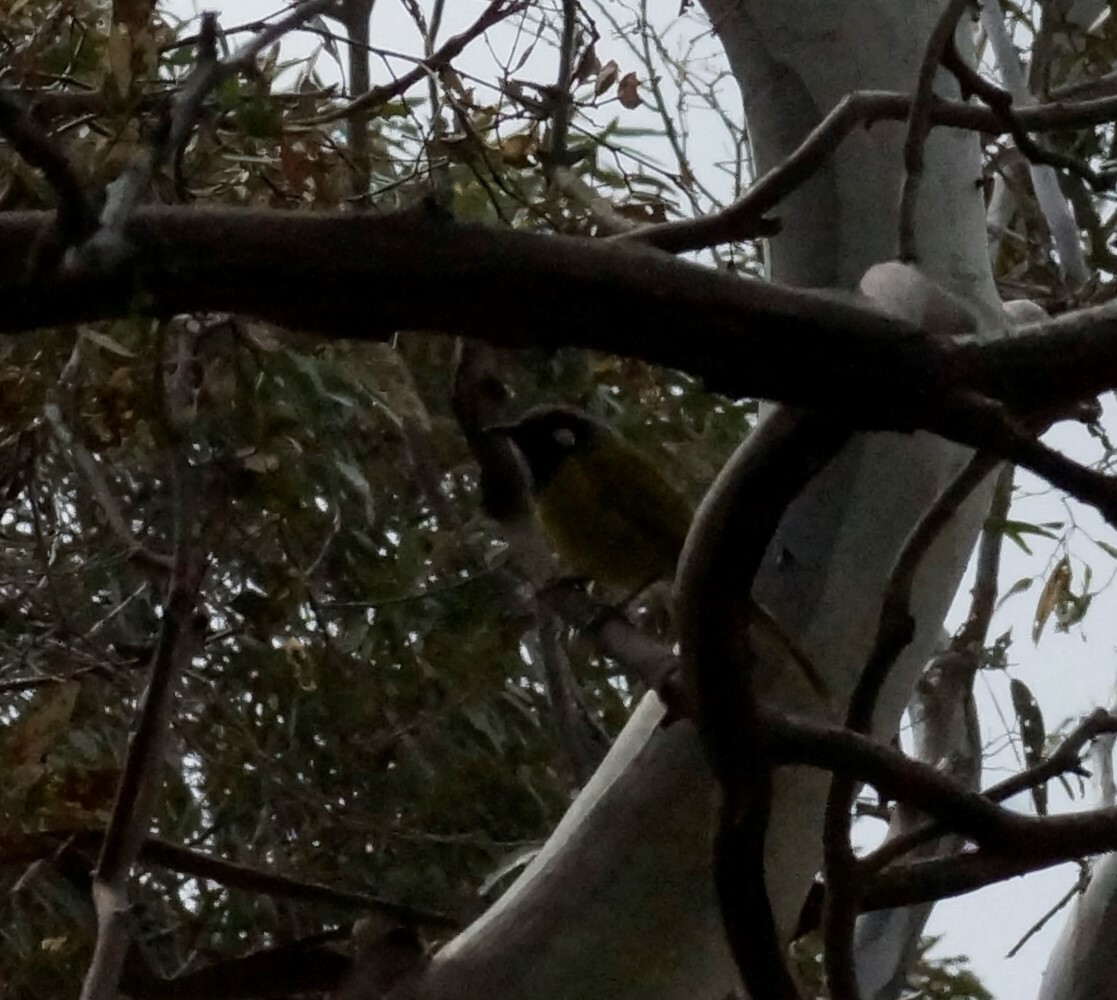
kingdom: Animalia
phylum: Chordata
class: Aves
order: Passeriformes
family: Meliphagidae
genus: Nesoptilotis
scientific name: Nesoptilotis leucotis
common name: White-eared honeyeater
